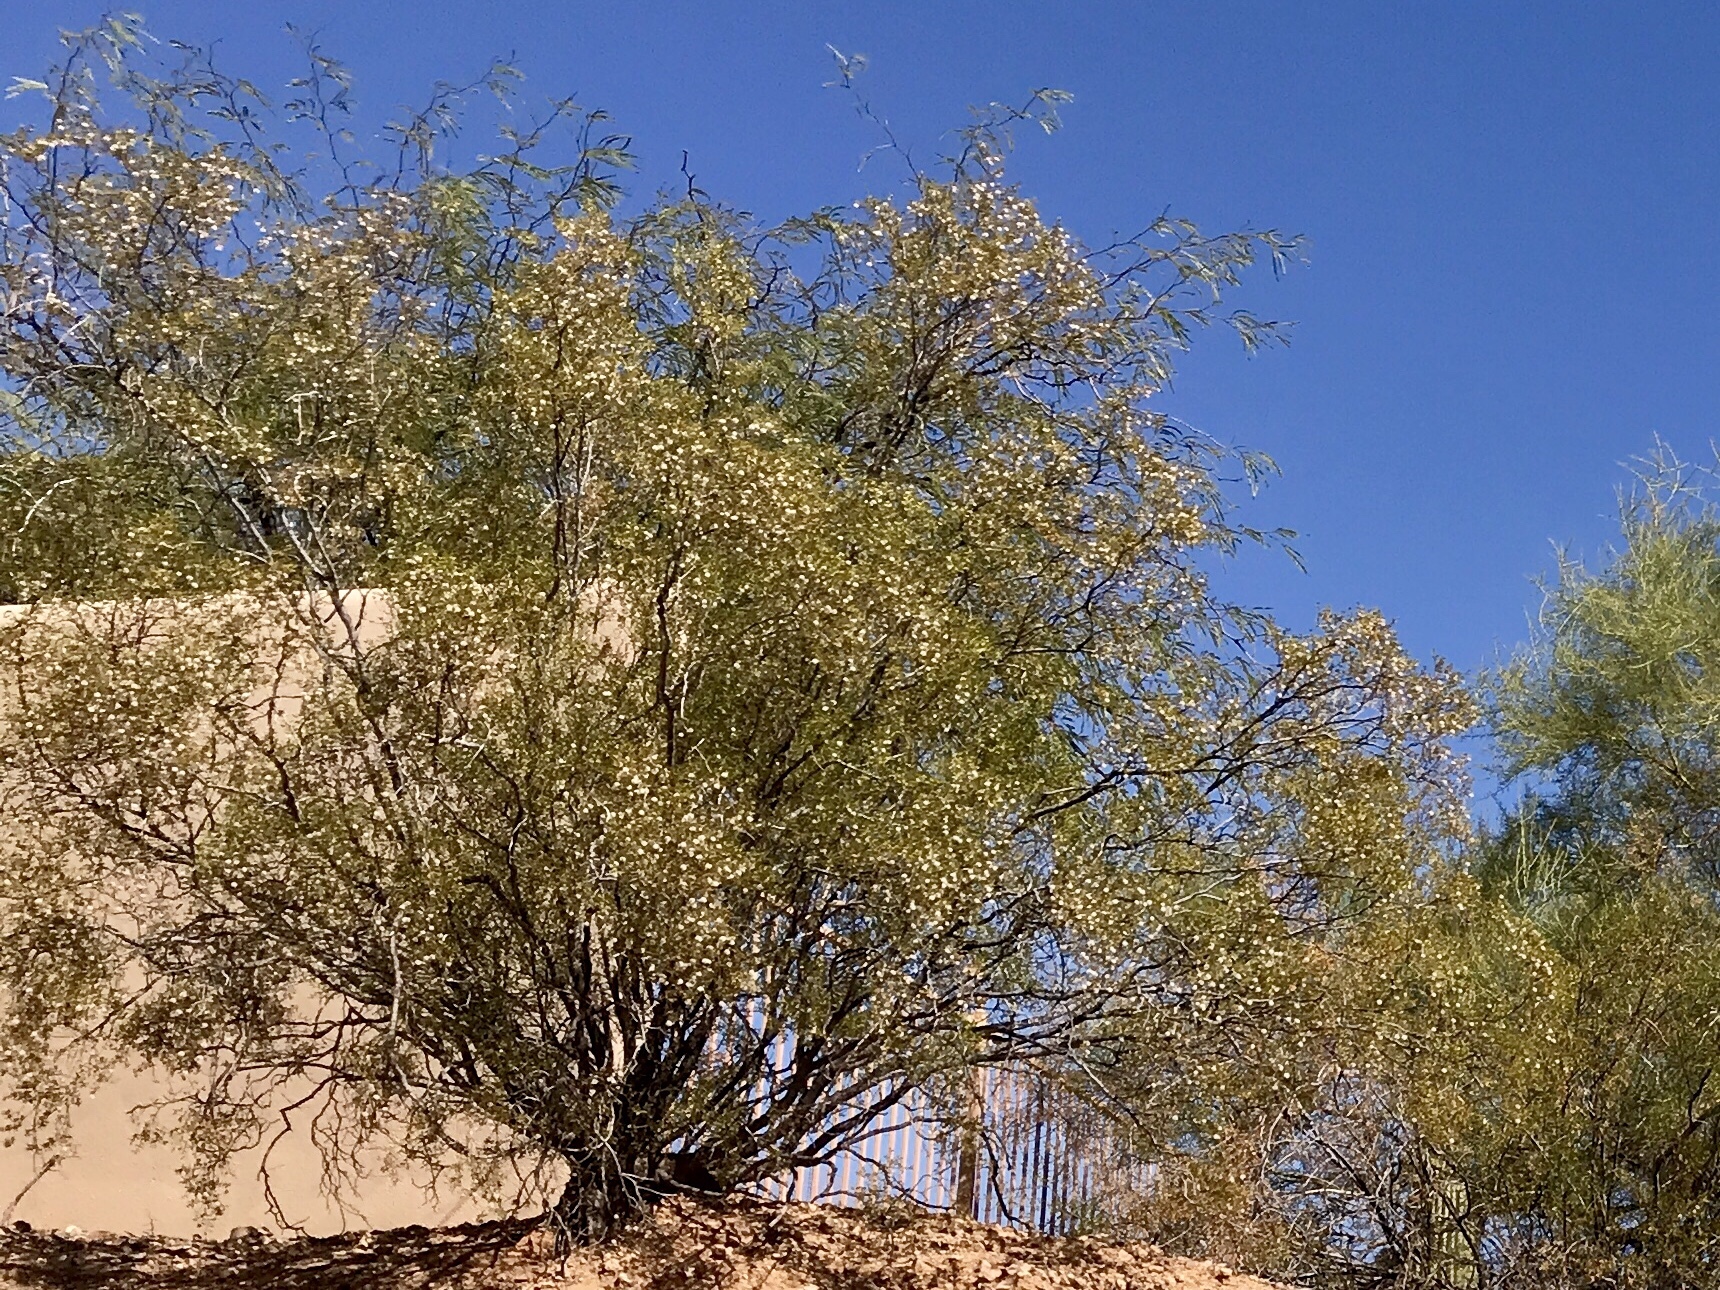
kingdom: Plantae
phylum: Tracheophyta
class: Magnoliopsida
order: Zygophyllales
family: Zygophyllaceae
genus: Larrea
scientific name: Larrea tridentata
